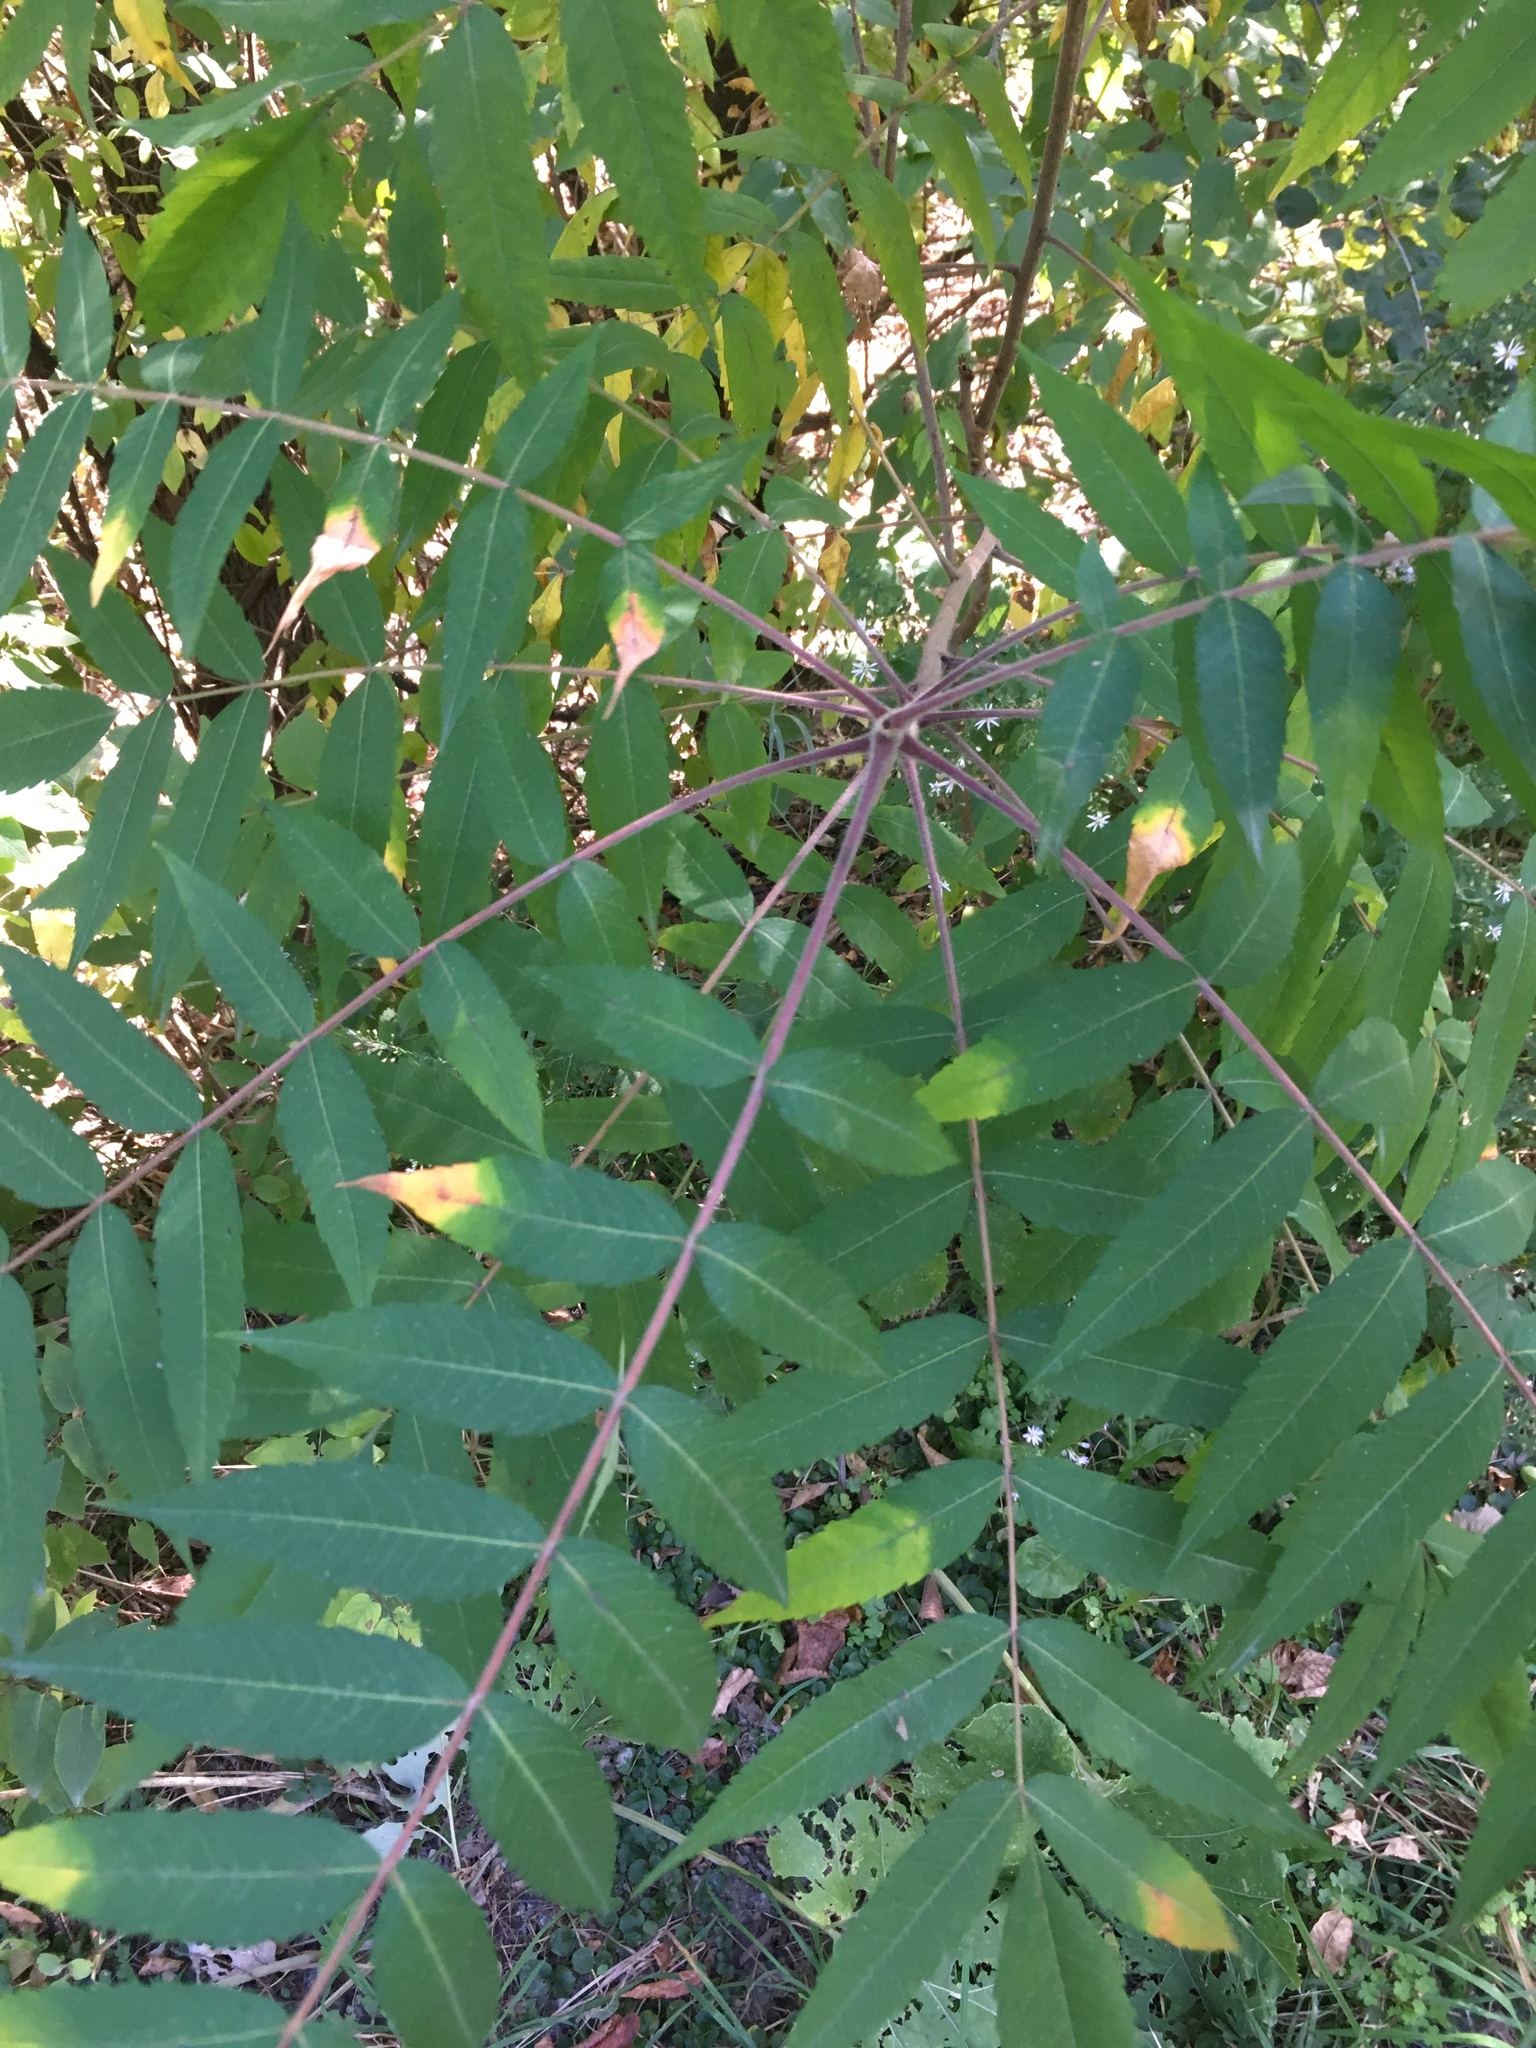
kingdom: Plantae
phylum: Tracheophyta
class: Magnoliopsida
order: Sapindales
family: Anacardiaceae
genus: Rhus
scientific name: Rhus typhina
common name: Staghorn sumac
